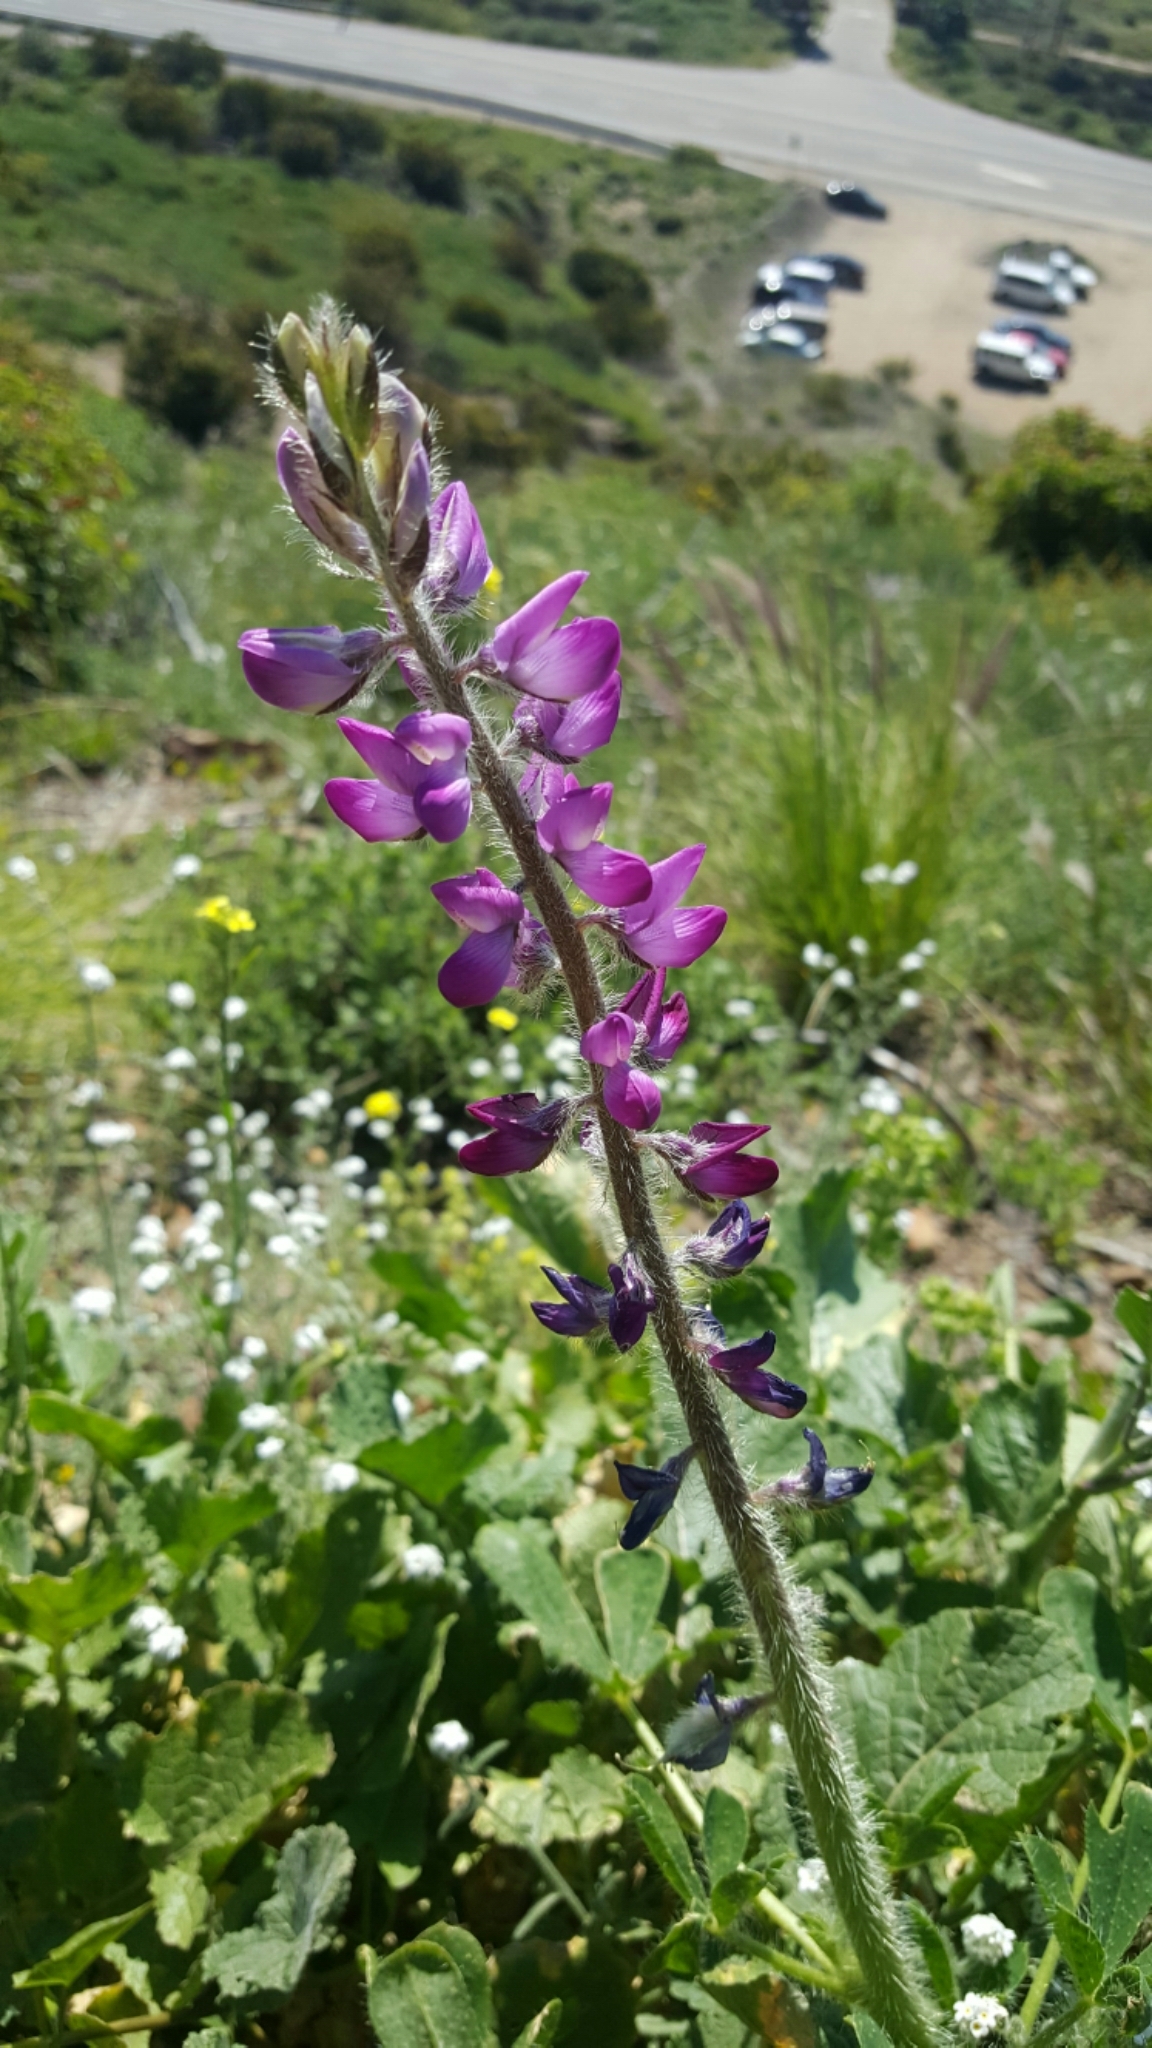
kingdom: Plantae
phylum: Tracheophyta
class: Magnoliopsida
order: Fabales
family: Fabaceae
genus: Lupinus
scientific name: Lupinus hirsutissimus
